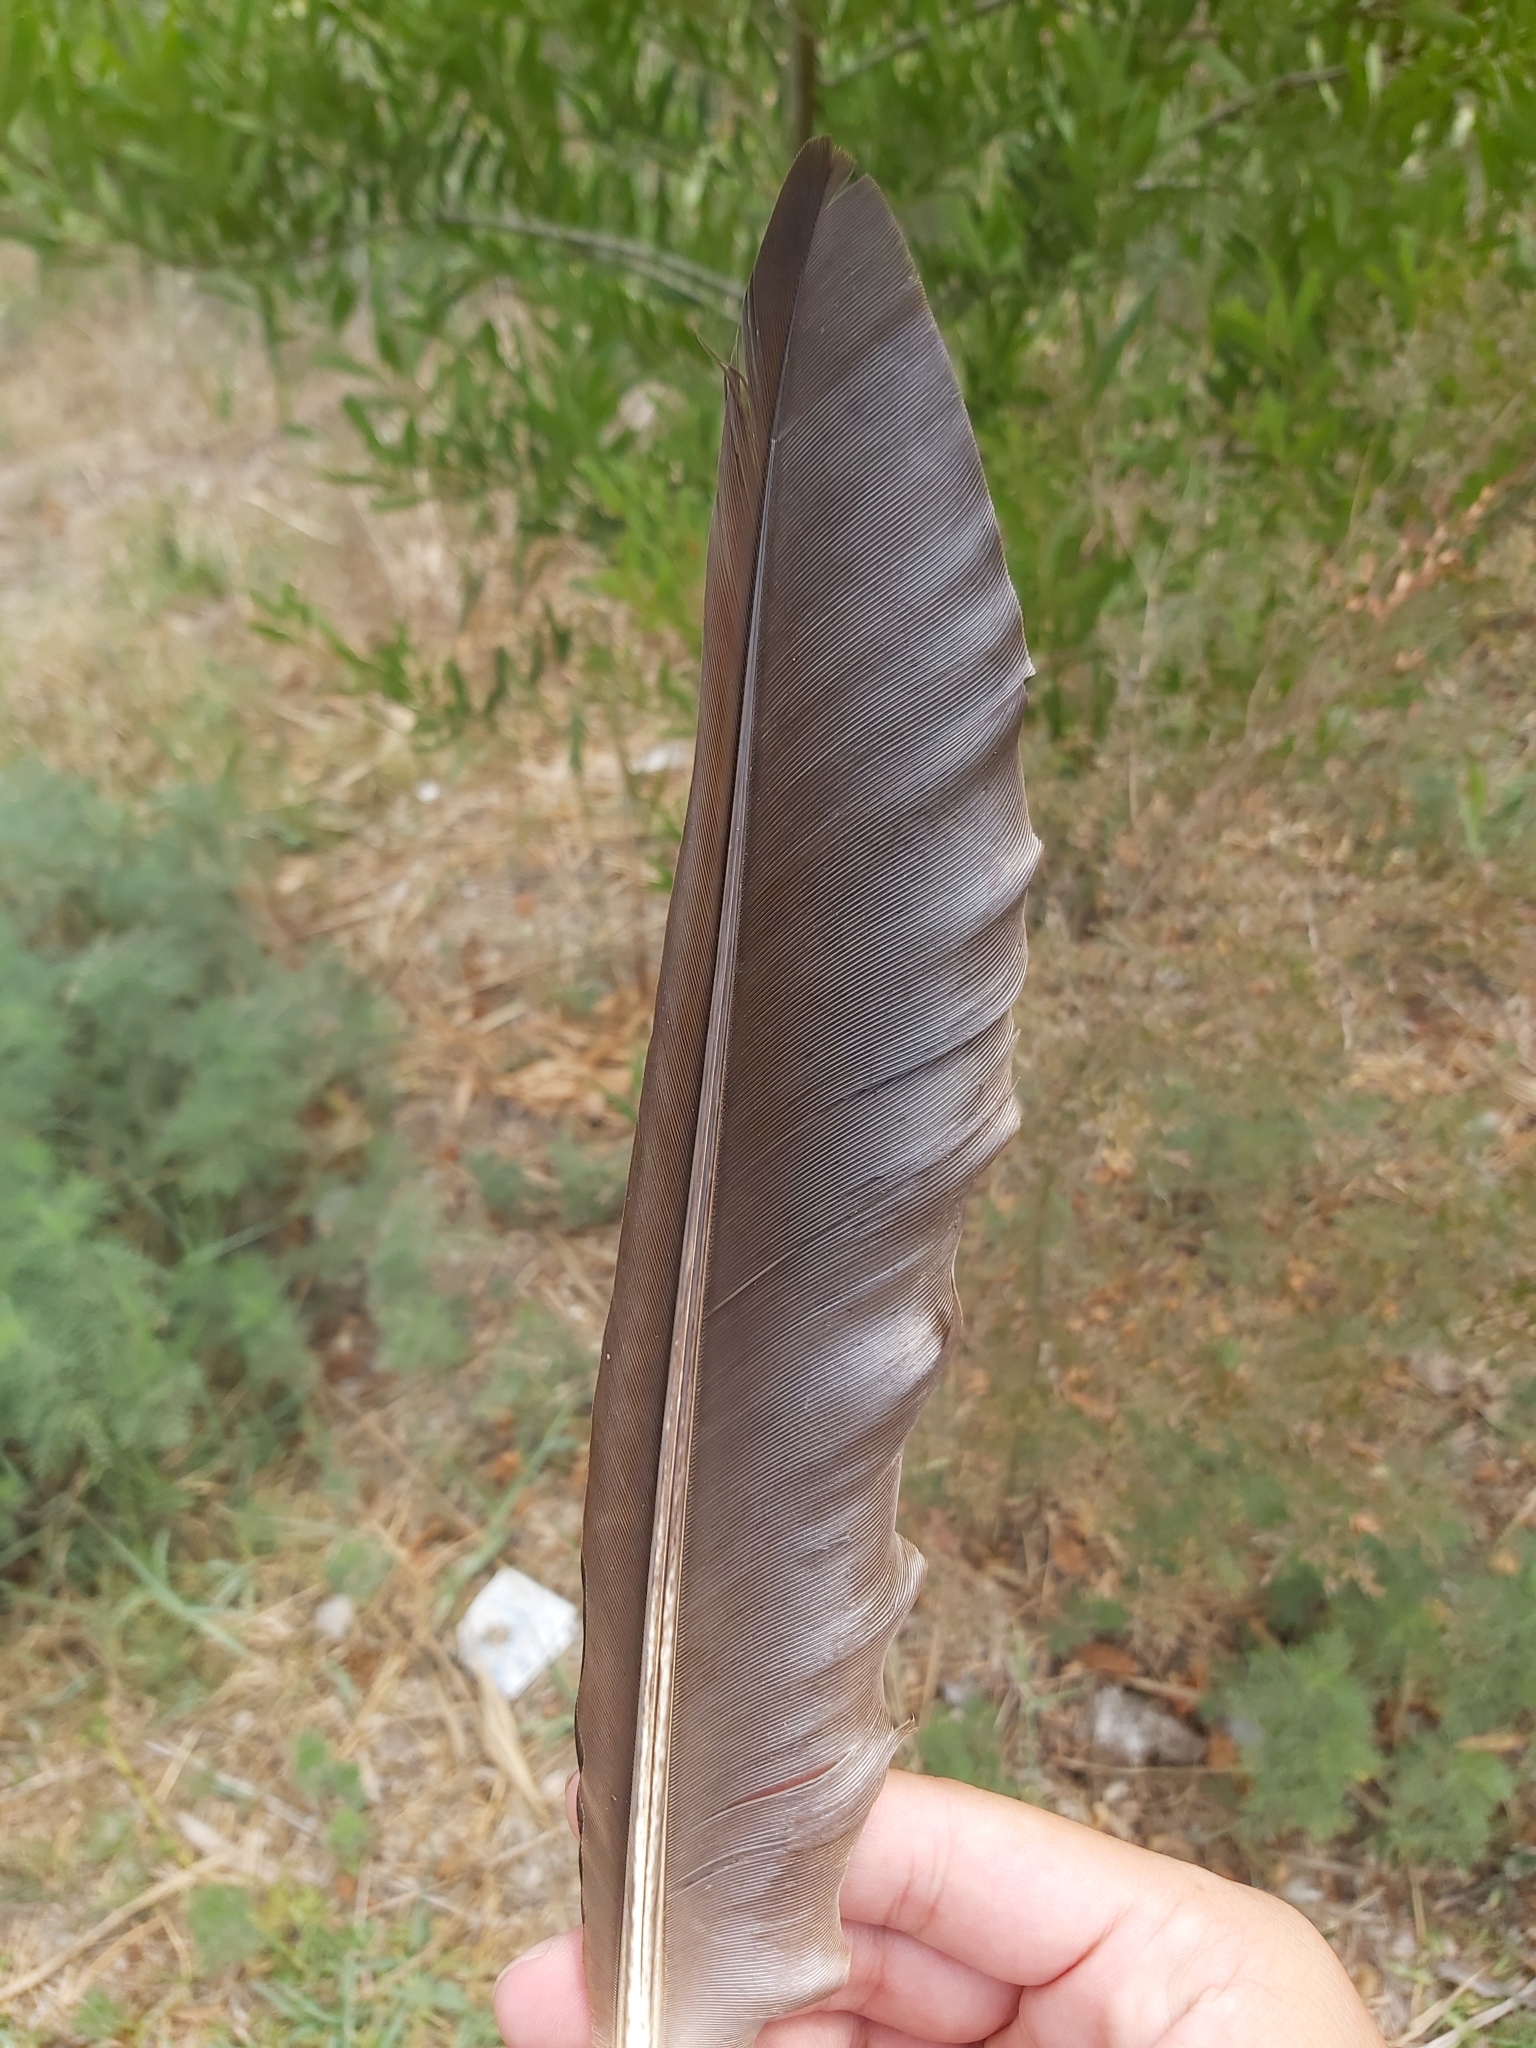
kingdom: Animalia
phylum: Chordata
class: Aves
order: Gruiformes
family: Rallidae
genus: Gallinula
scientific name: Gallinula tenebrosa
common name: Dusky moorhen
